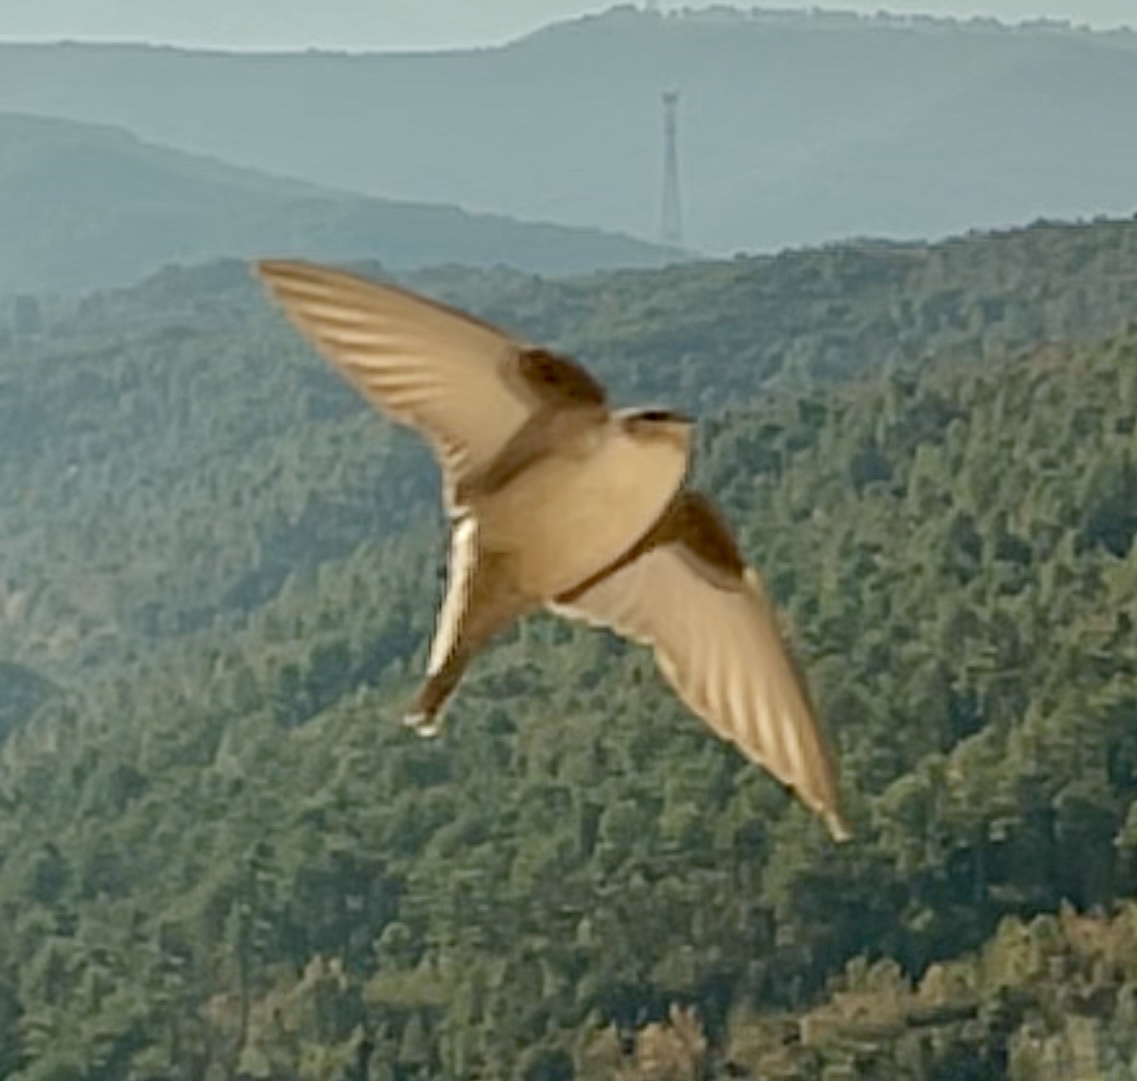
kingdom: Animalia
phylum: Chordata
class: Aves
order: Passeriformes
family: Hirundinidae
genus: Ptyonoprogne
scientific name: Ptyonoprogne rupestris
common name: Eurasian crag martin
